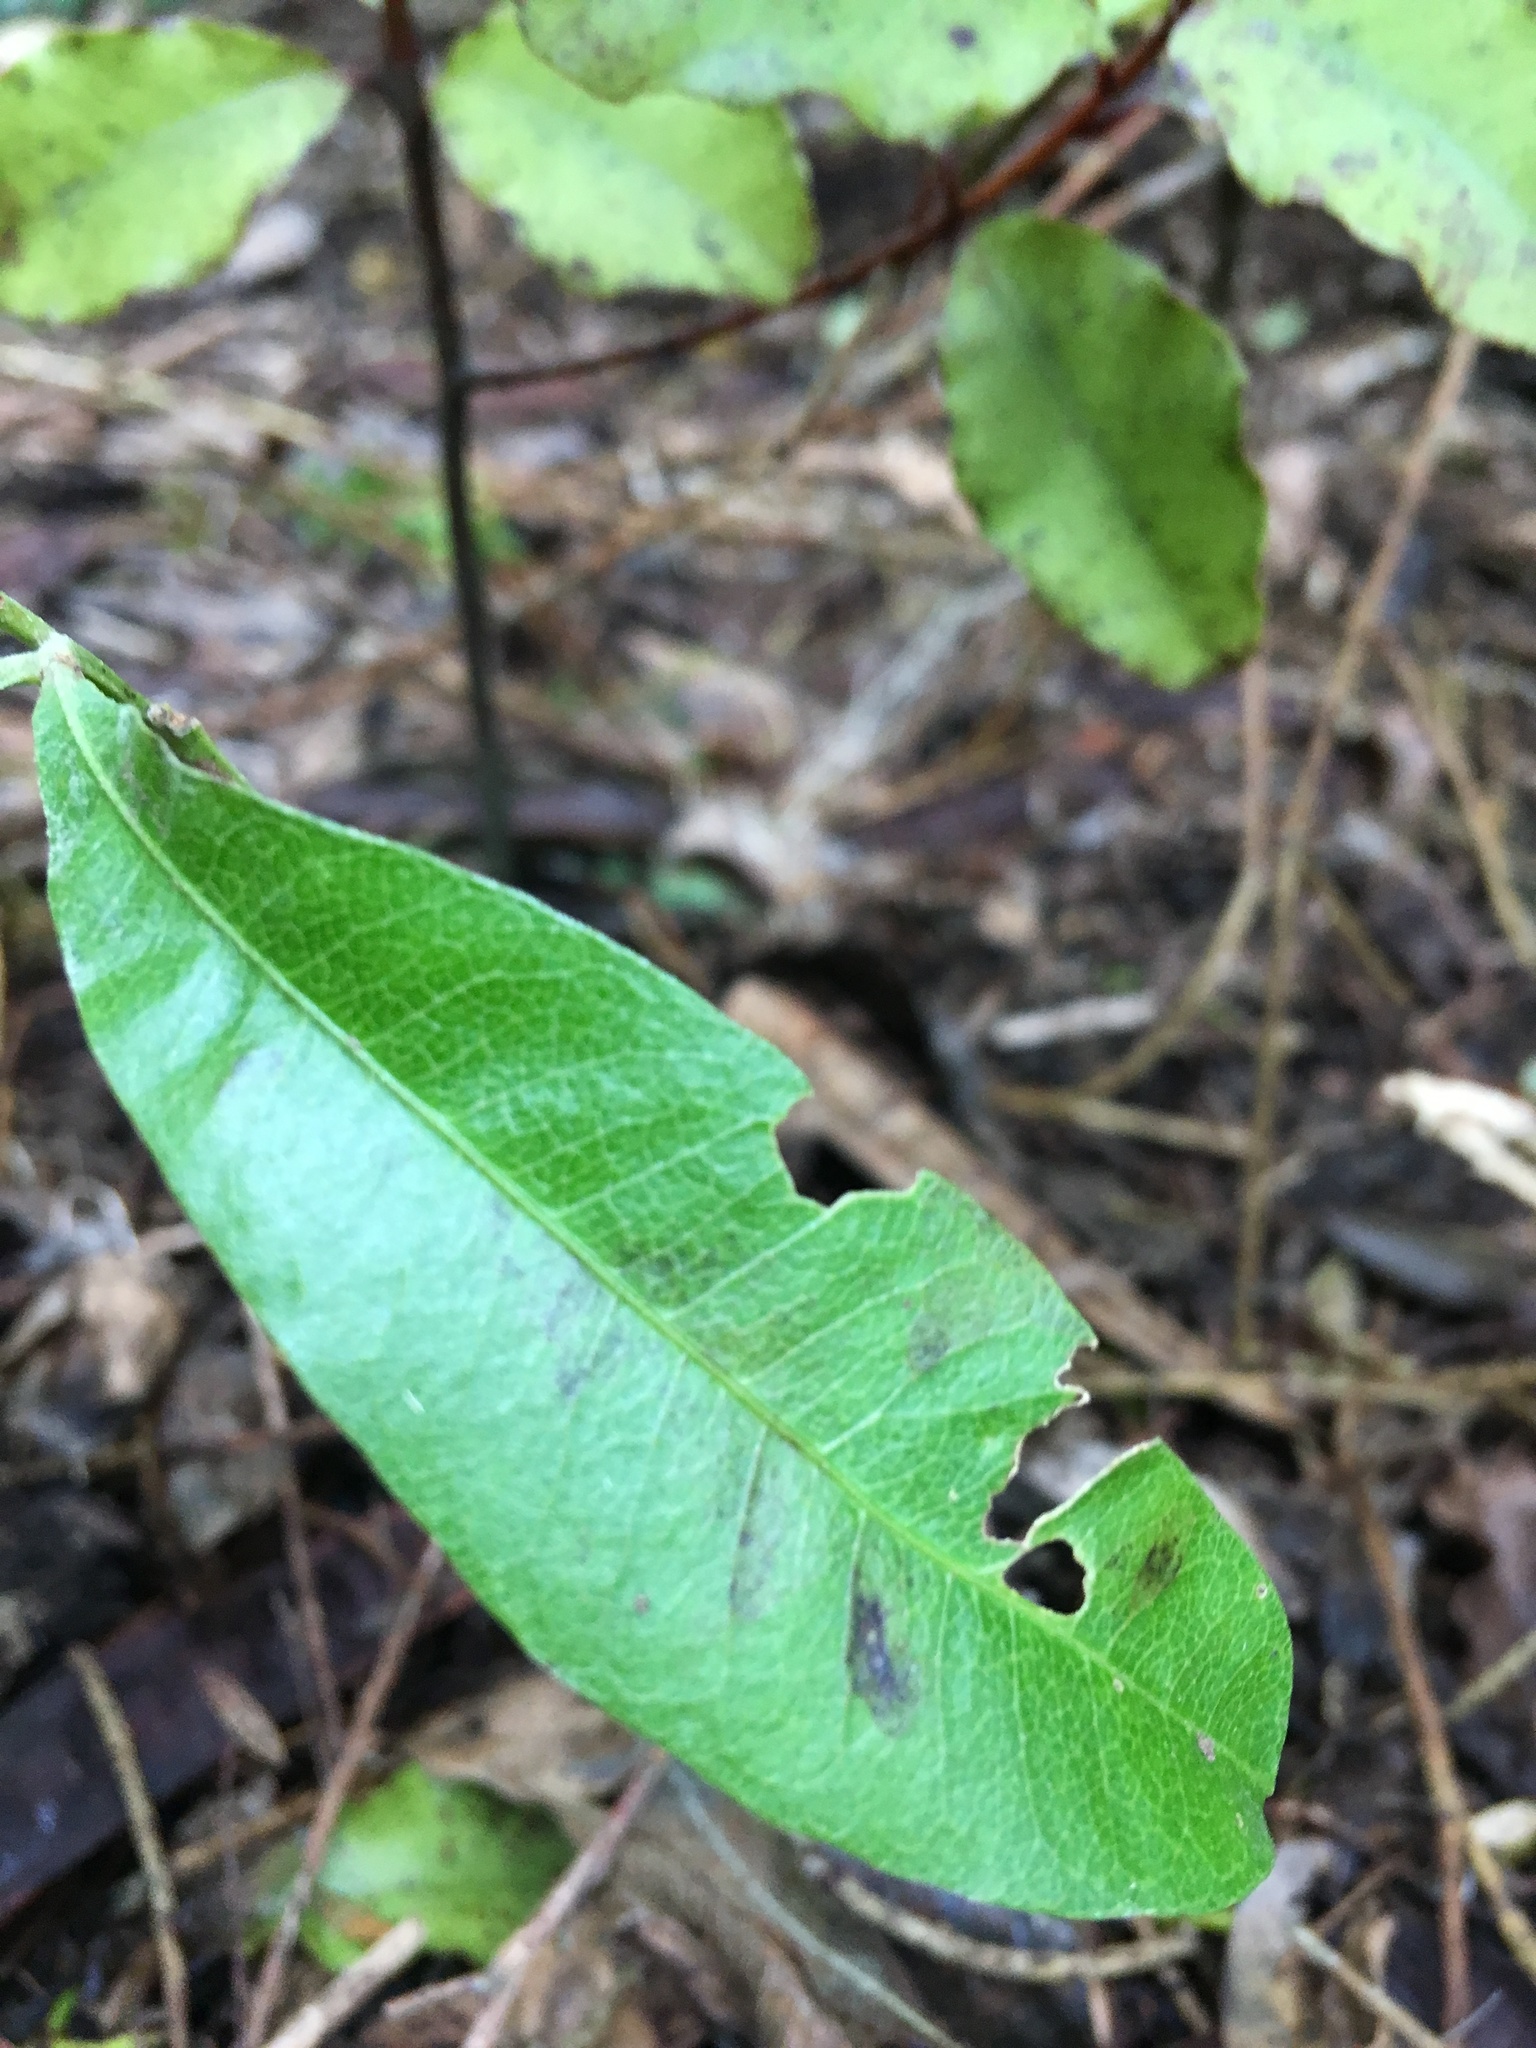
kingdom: Plantae
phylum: Tracheophyta
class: Magnoliopsida
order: Sapindales
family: Sapindaceae
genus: Dodonaea
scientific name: Dodonaea viscosa
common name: Hopbush
